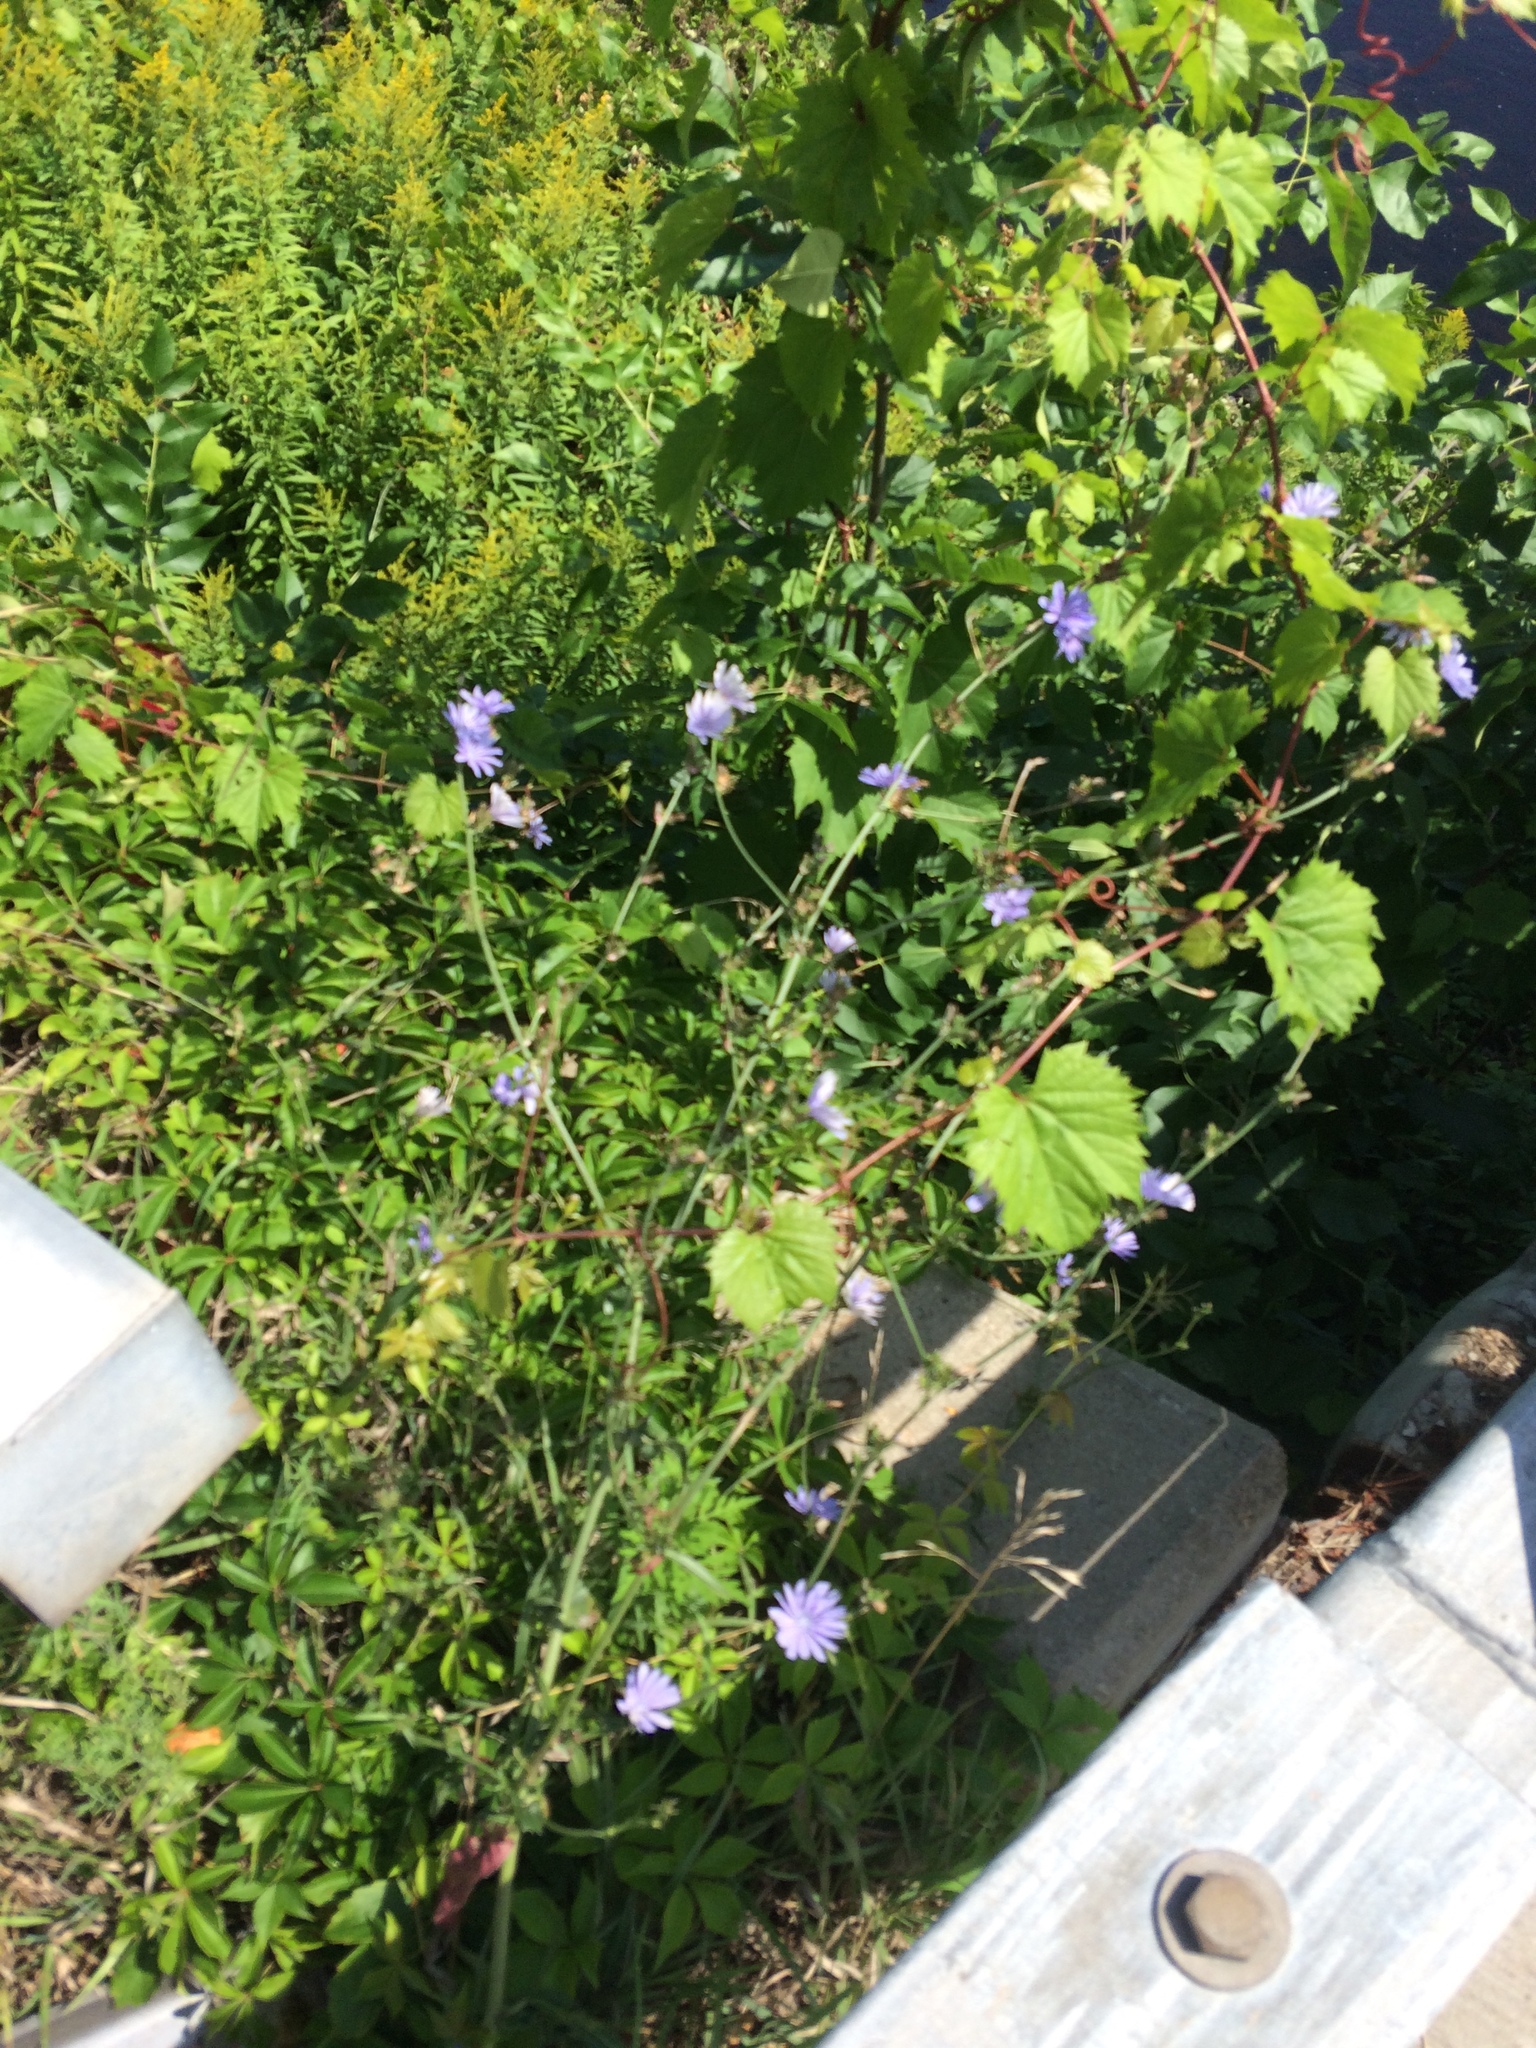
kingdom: Plantae
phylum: Tracheophyta
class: Magnoliopsida
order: Asterales
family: Asteraceae
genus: Cichorium
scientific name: Cichorium intybus
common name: Chicory
